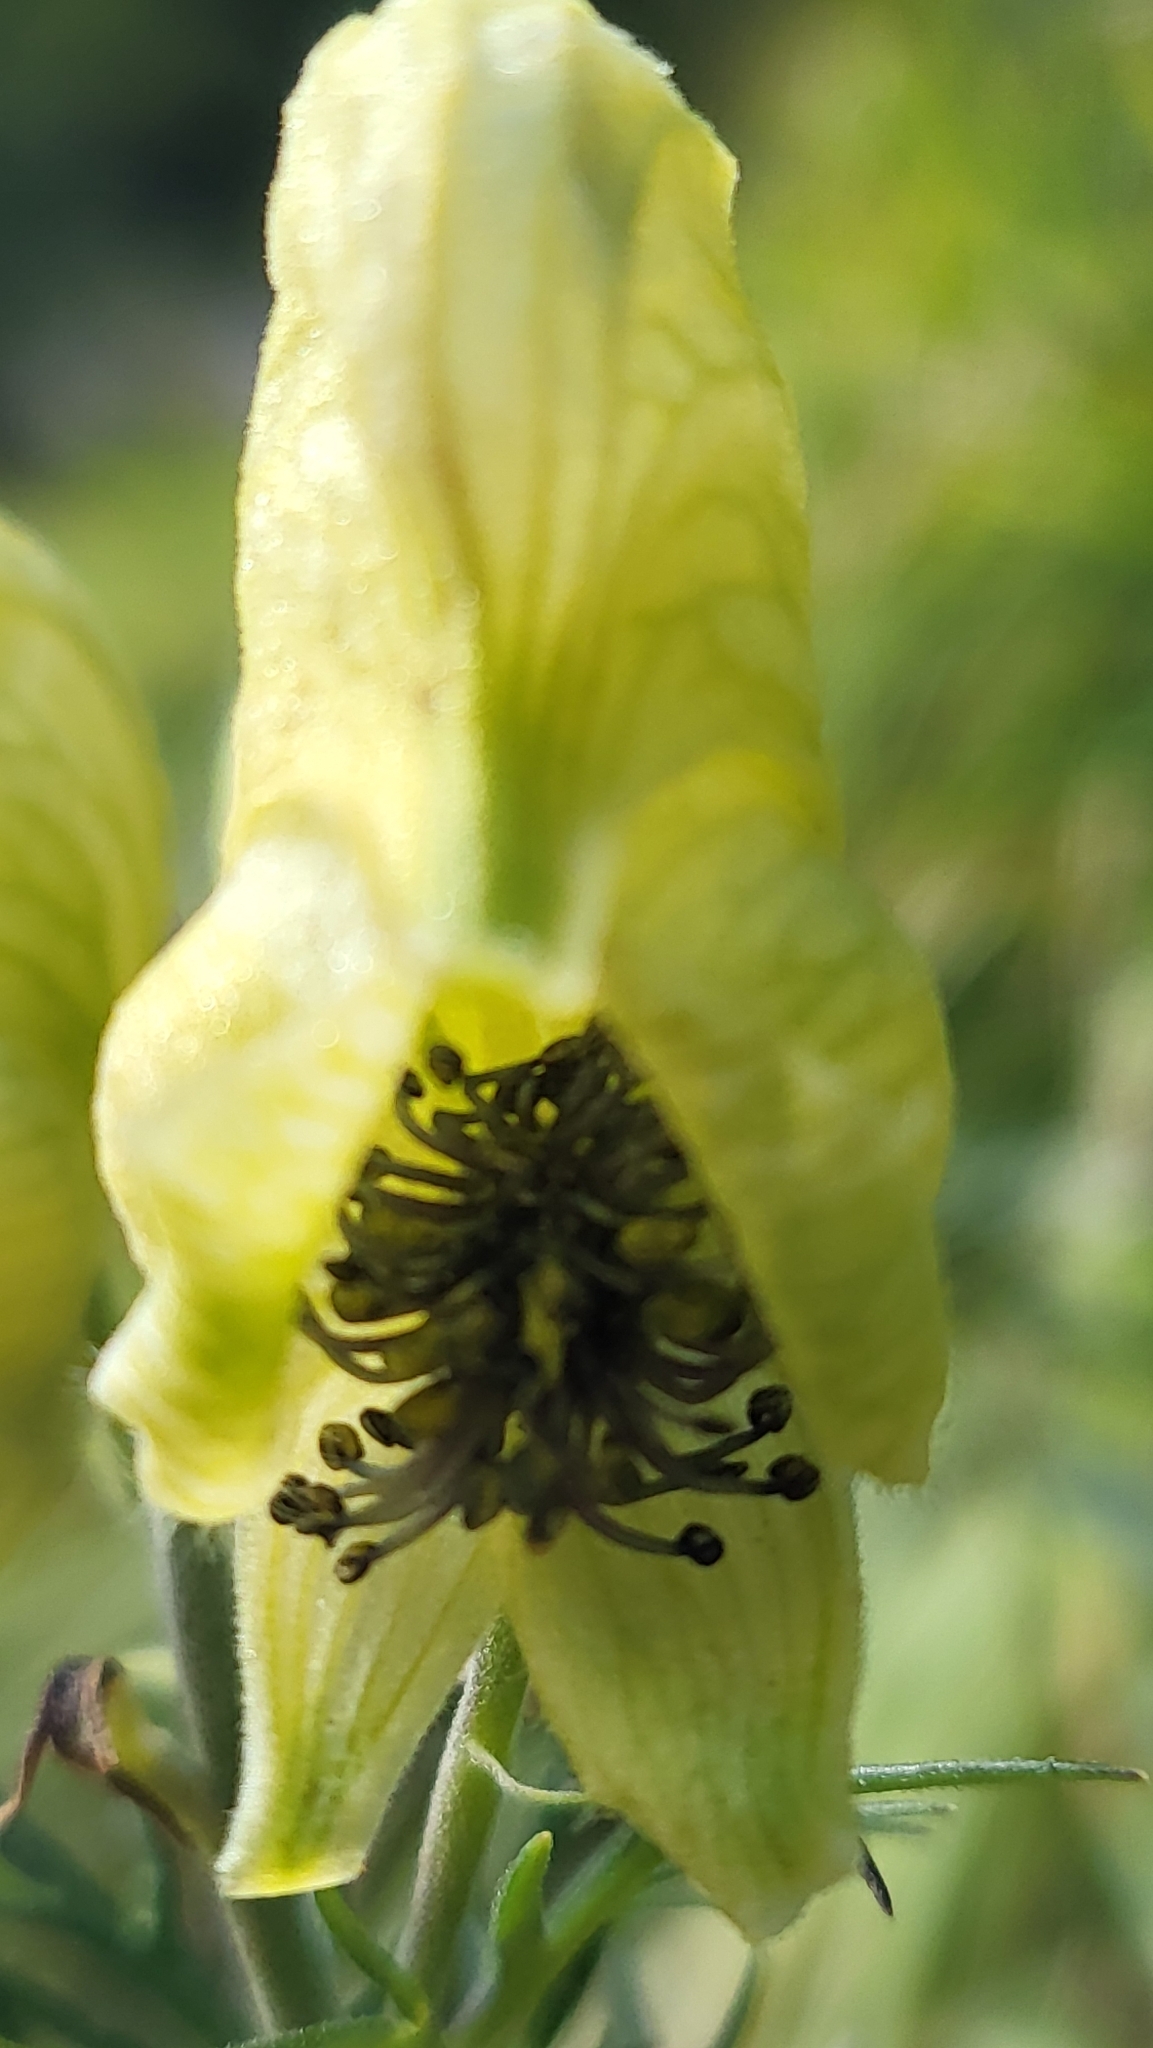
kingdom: Plantae
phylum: Tracheophyta
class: Magnoliopsida
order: Ranunculales
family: Ranunculaceae
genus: Aconitum
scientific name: Aconitum anthora
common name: Yellow monkshood
